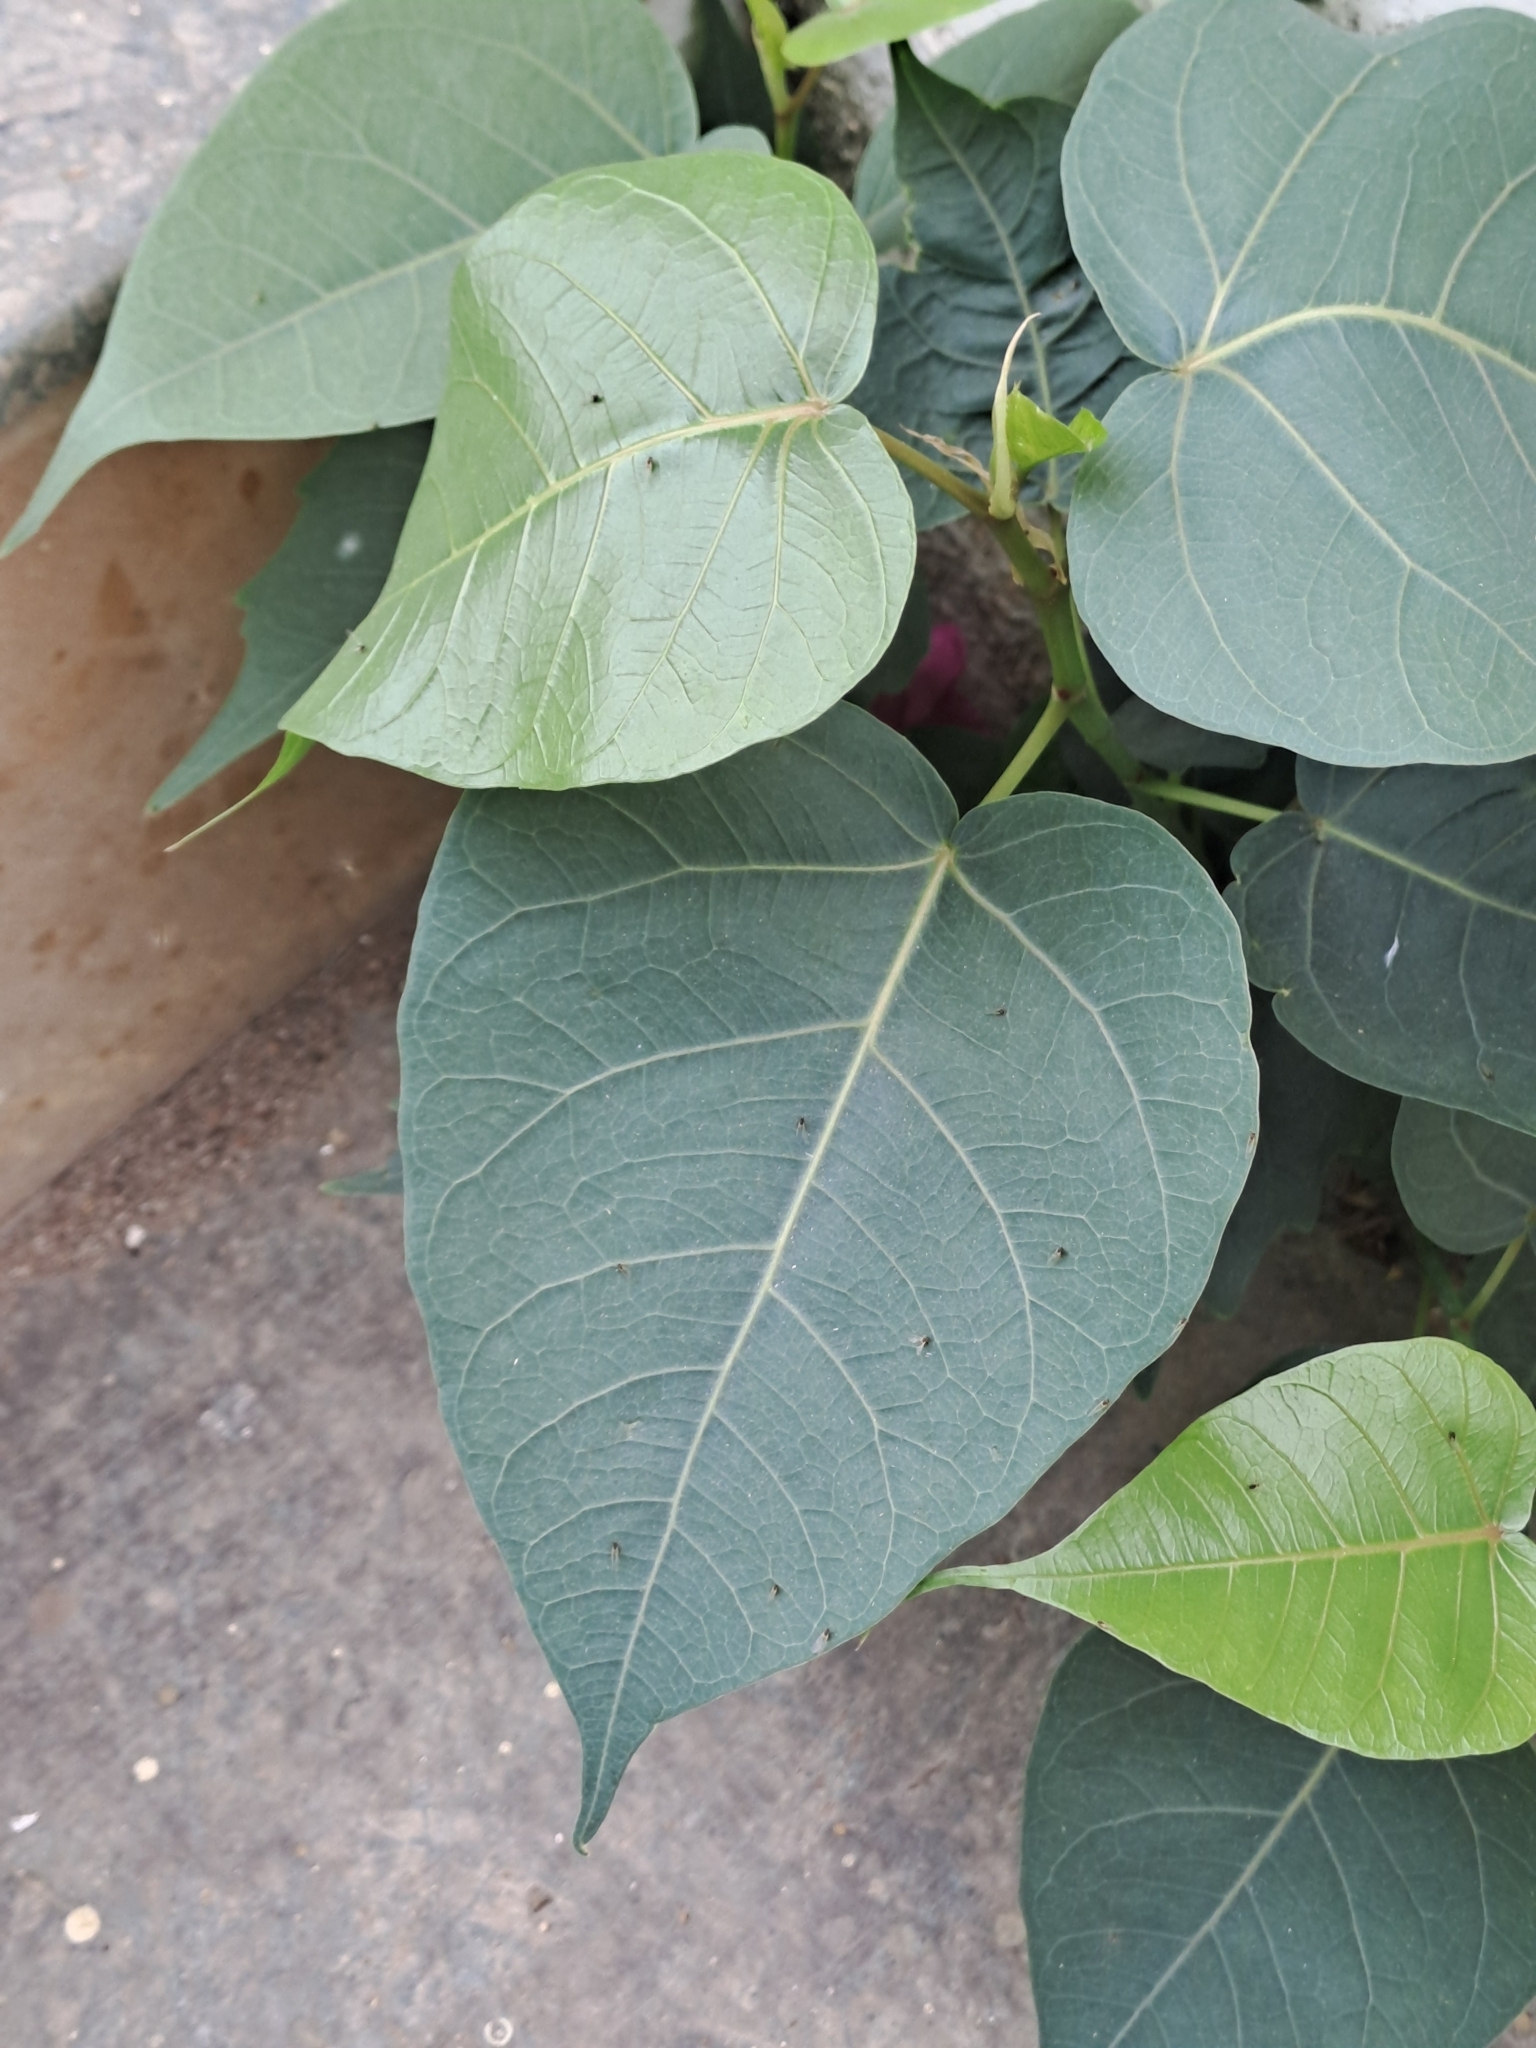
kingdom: Plantae
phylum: Tracheophyta
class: Magnoliopsida
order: Rosales
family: Moraceae
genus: Ficus
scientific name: Ficus religiosa
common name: Bodhi tree
